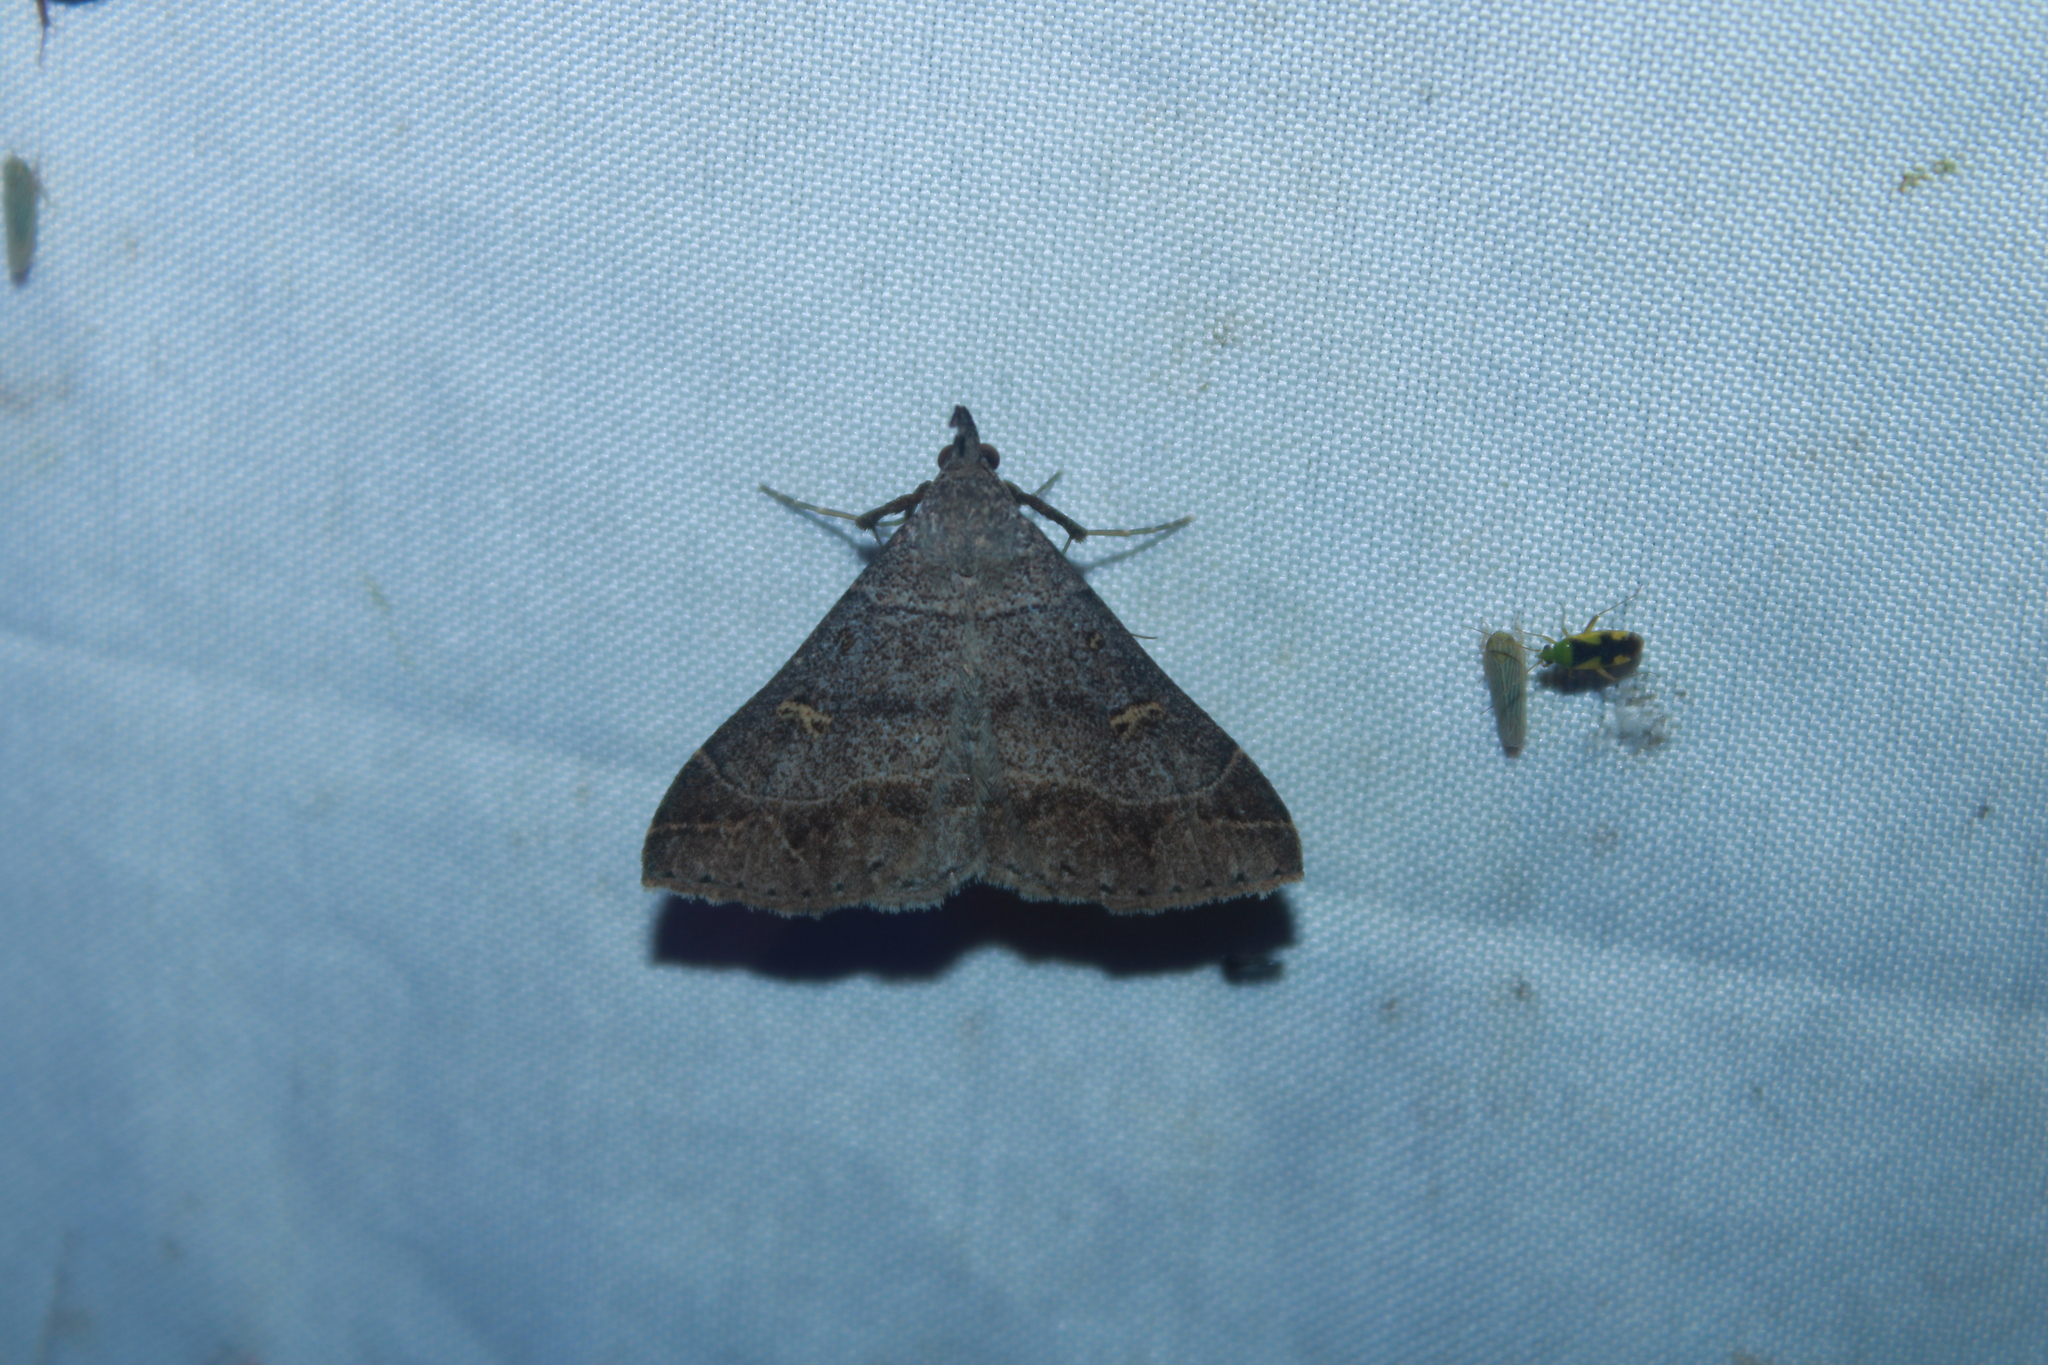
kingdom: Animalia
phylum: Arthropoda
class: Insecta
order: Lepidoptera
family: Erebidae
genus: Renia
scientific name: Renia flavipunctalis
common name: Yellow-spotted renia moth
